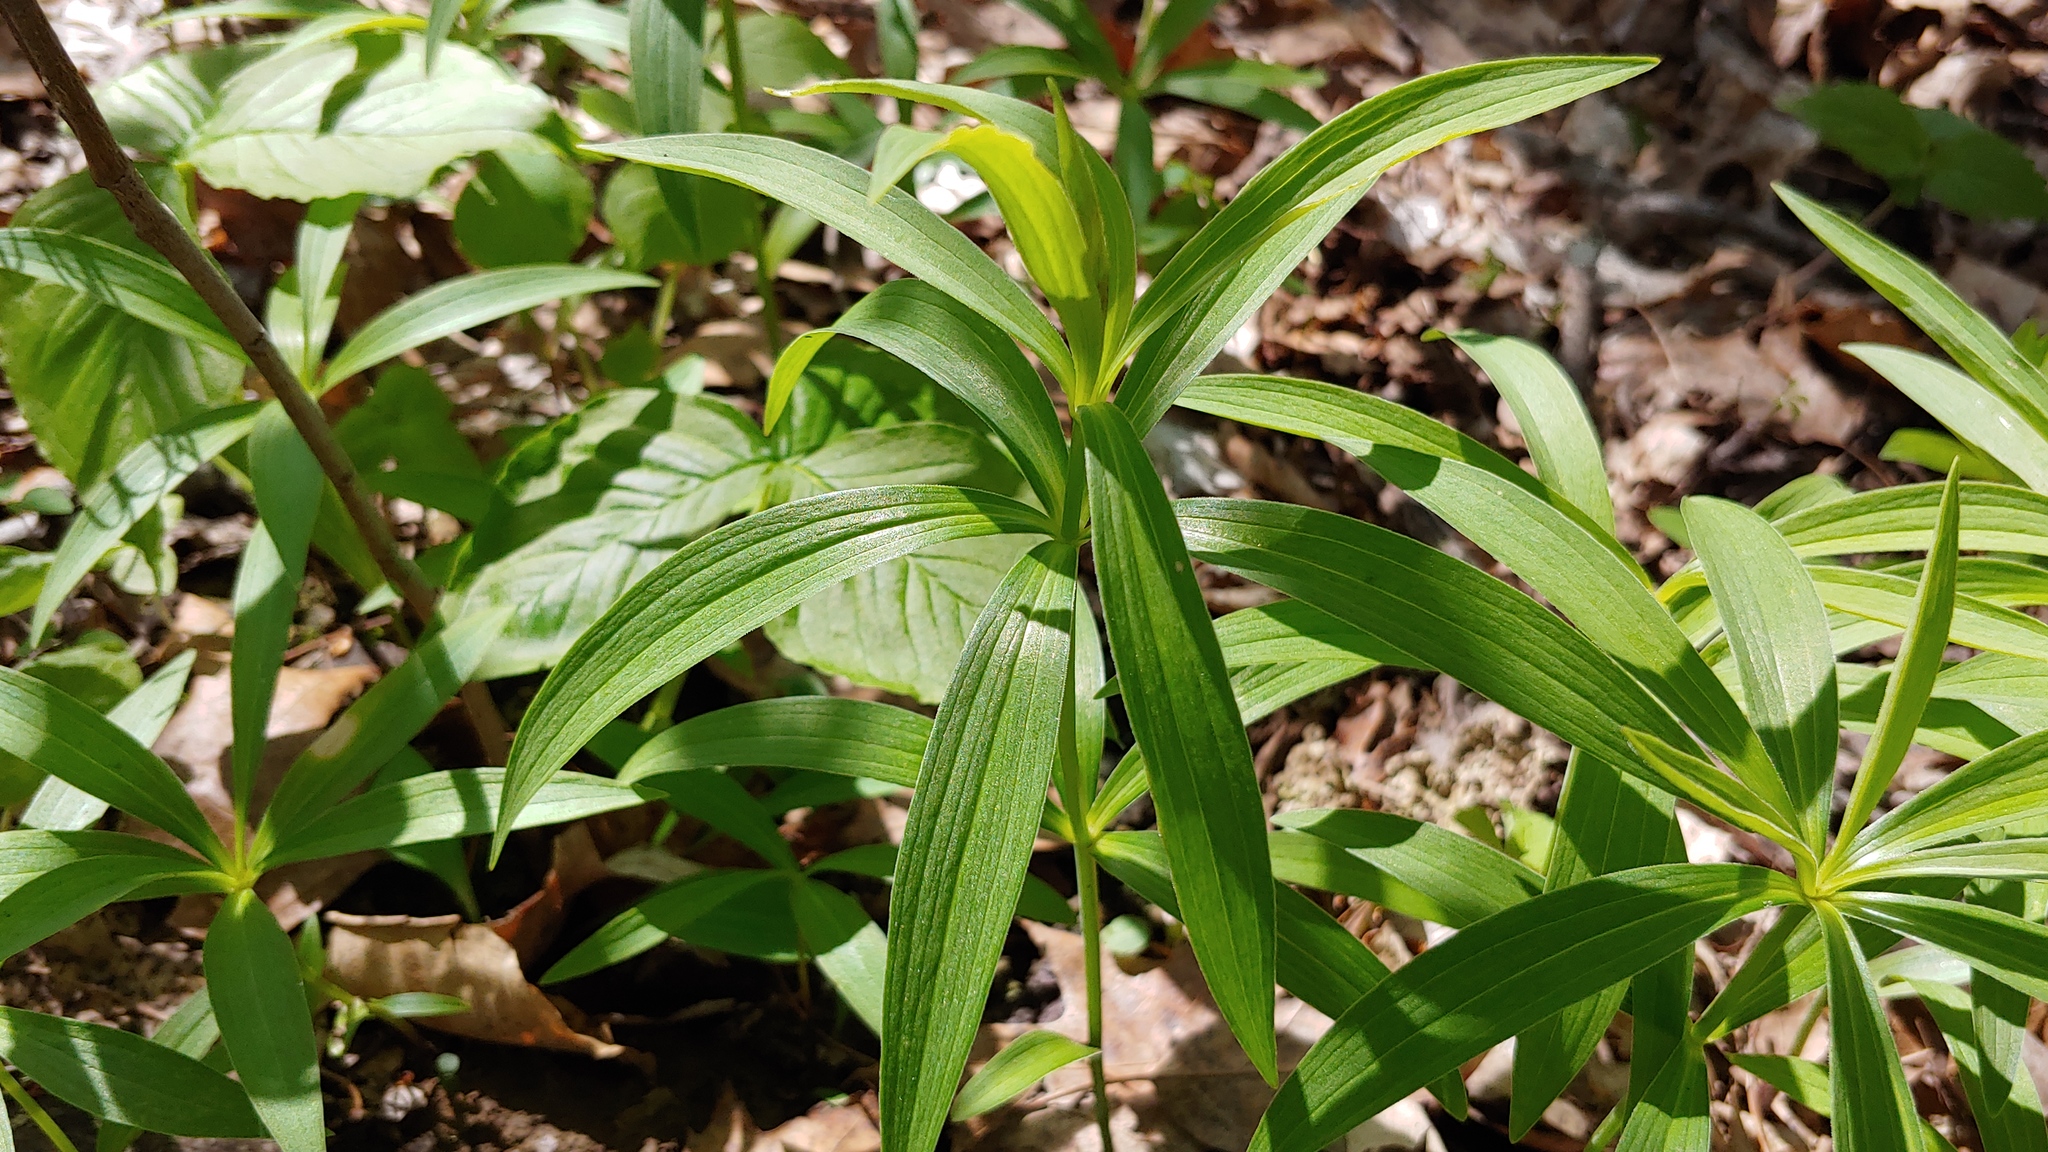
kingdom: Plantae
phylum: Tracheophyta
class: Liliopsida
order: Liliales
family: Liliaceae
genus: Lilium
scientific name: Lilium michiganense
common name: Michigan lily
